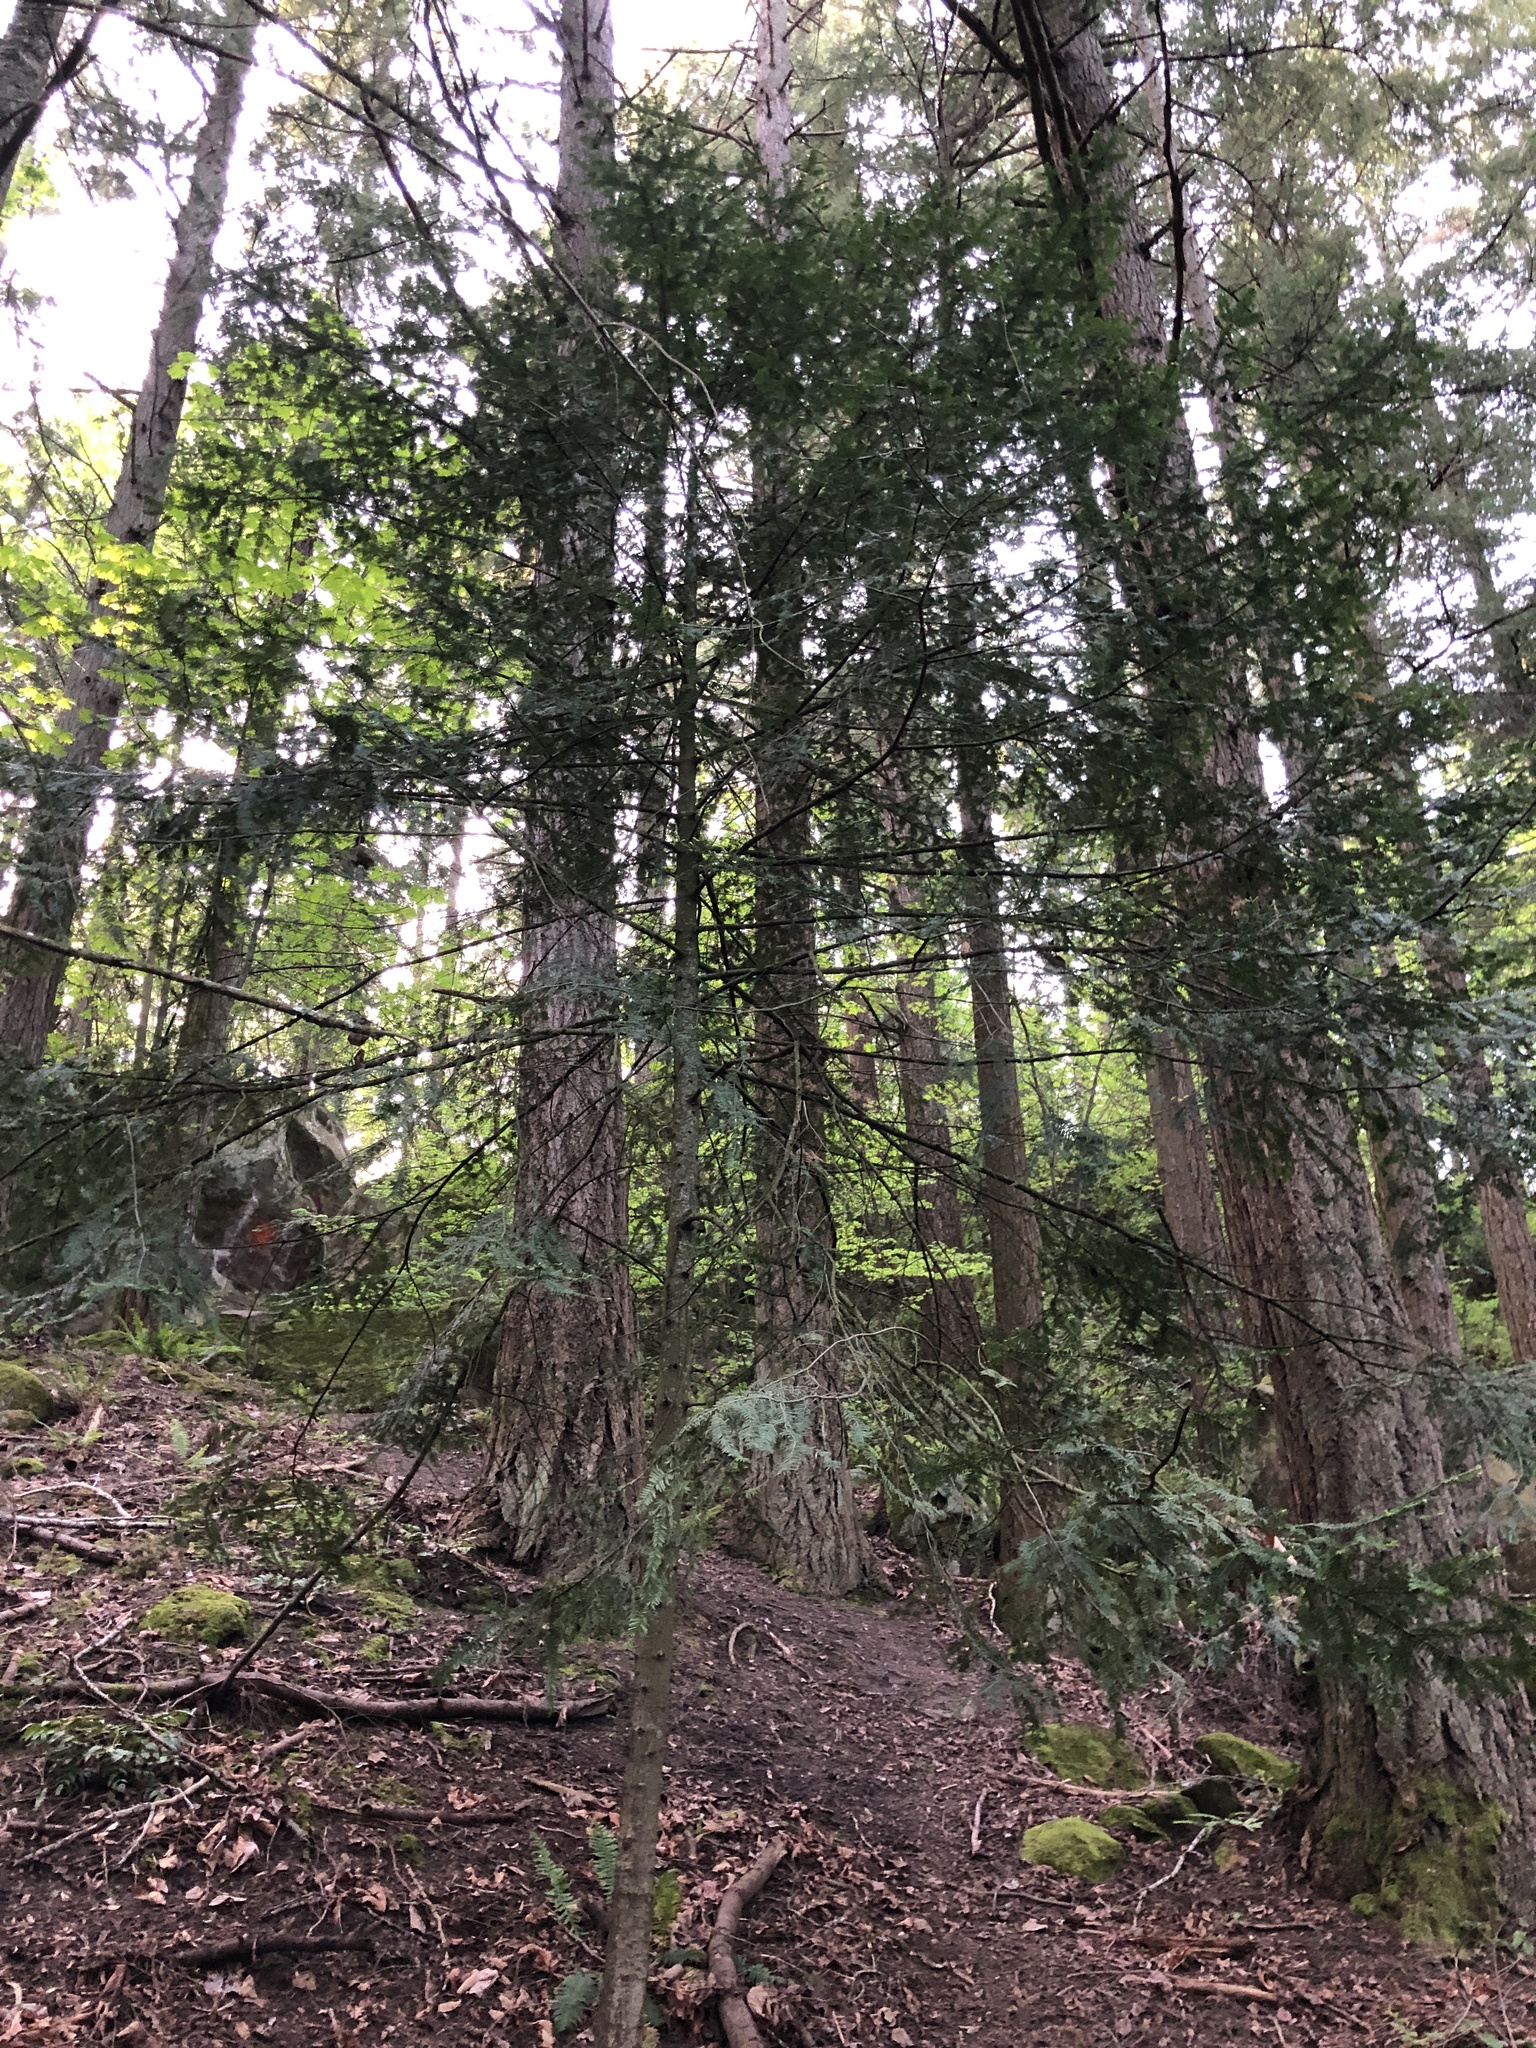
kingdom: Plantae
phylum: Tracheophyta
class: Pinopsida
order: Pinales
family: Pinaceae
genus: Abies
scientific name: Abies grandis
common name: Giant fir
